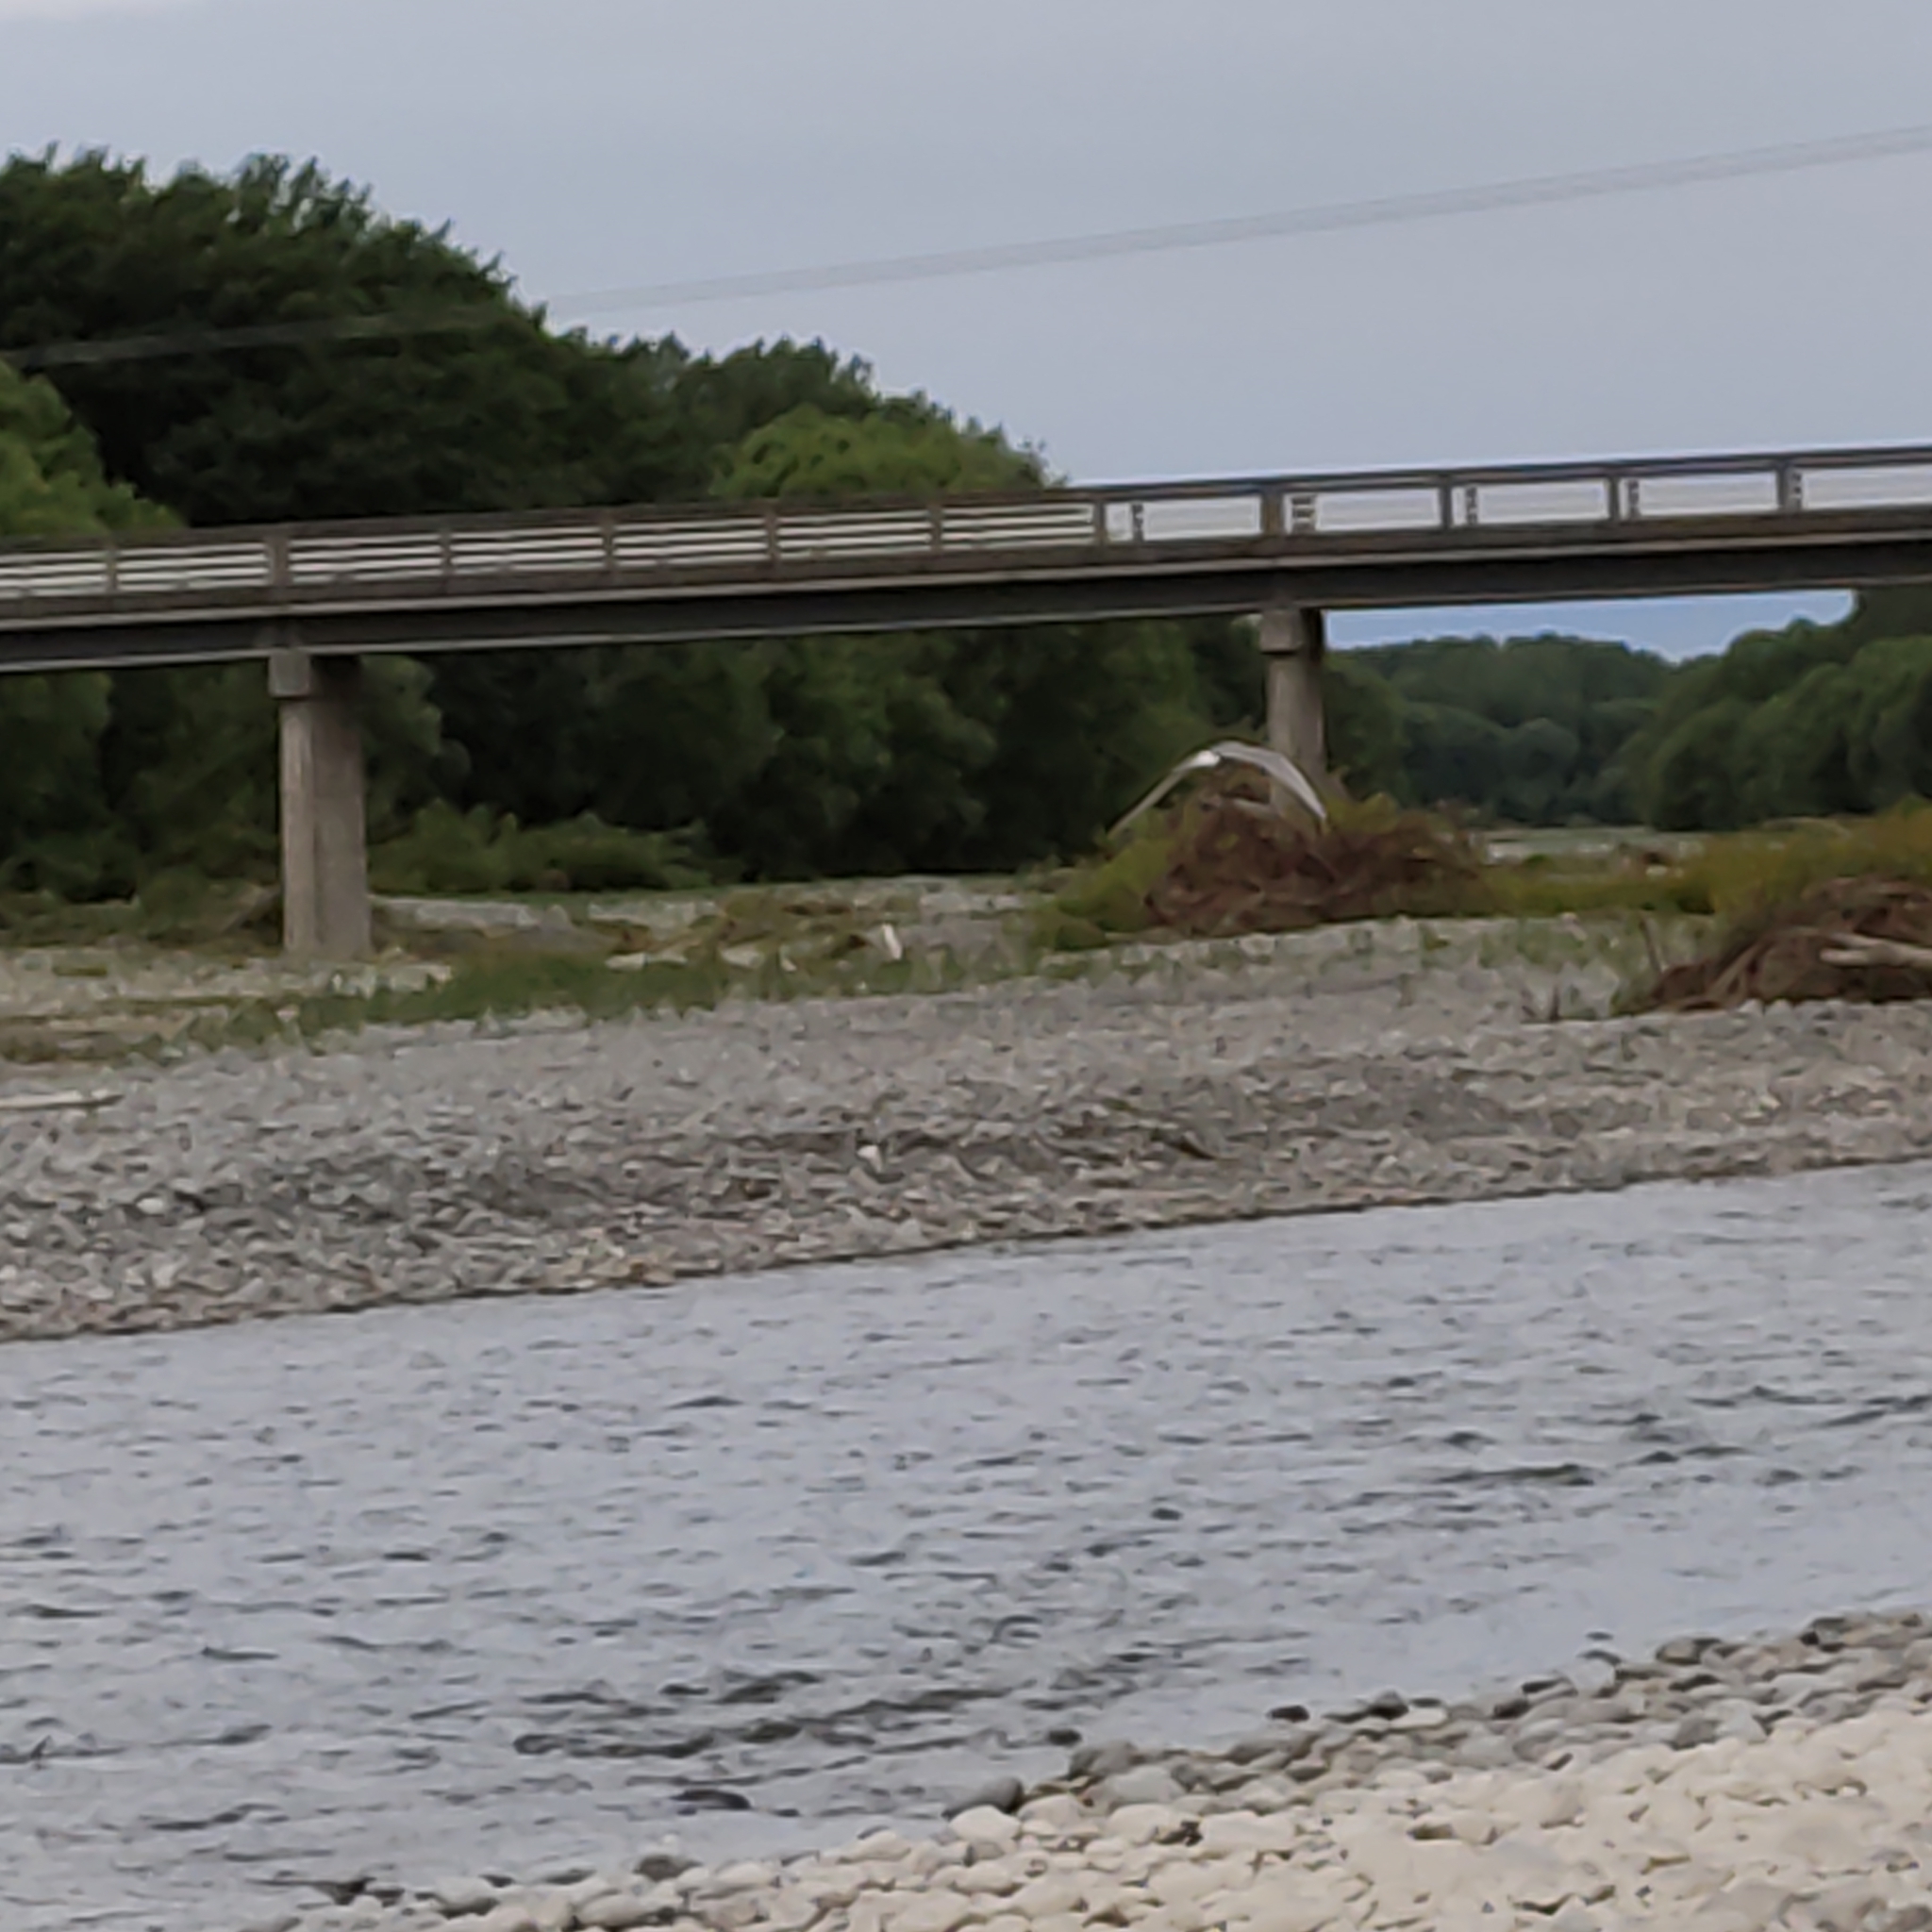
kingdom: Animalia
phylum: Chordata
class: Aves
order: Charadriiformes
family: Laridae
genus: Chlidonias
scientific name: Chlidonias albostriatus
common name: Black-fronted tern
